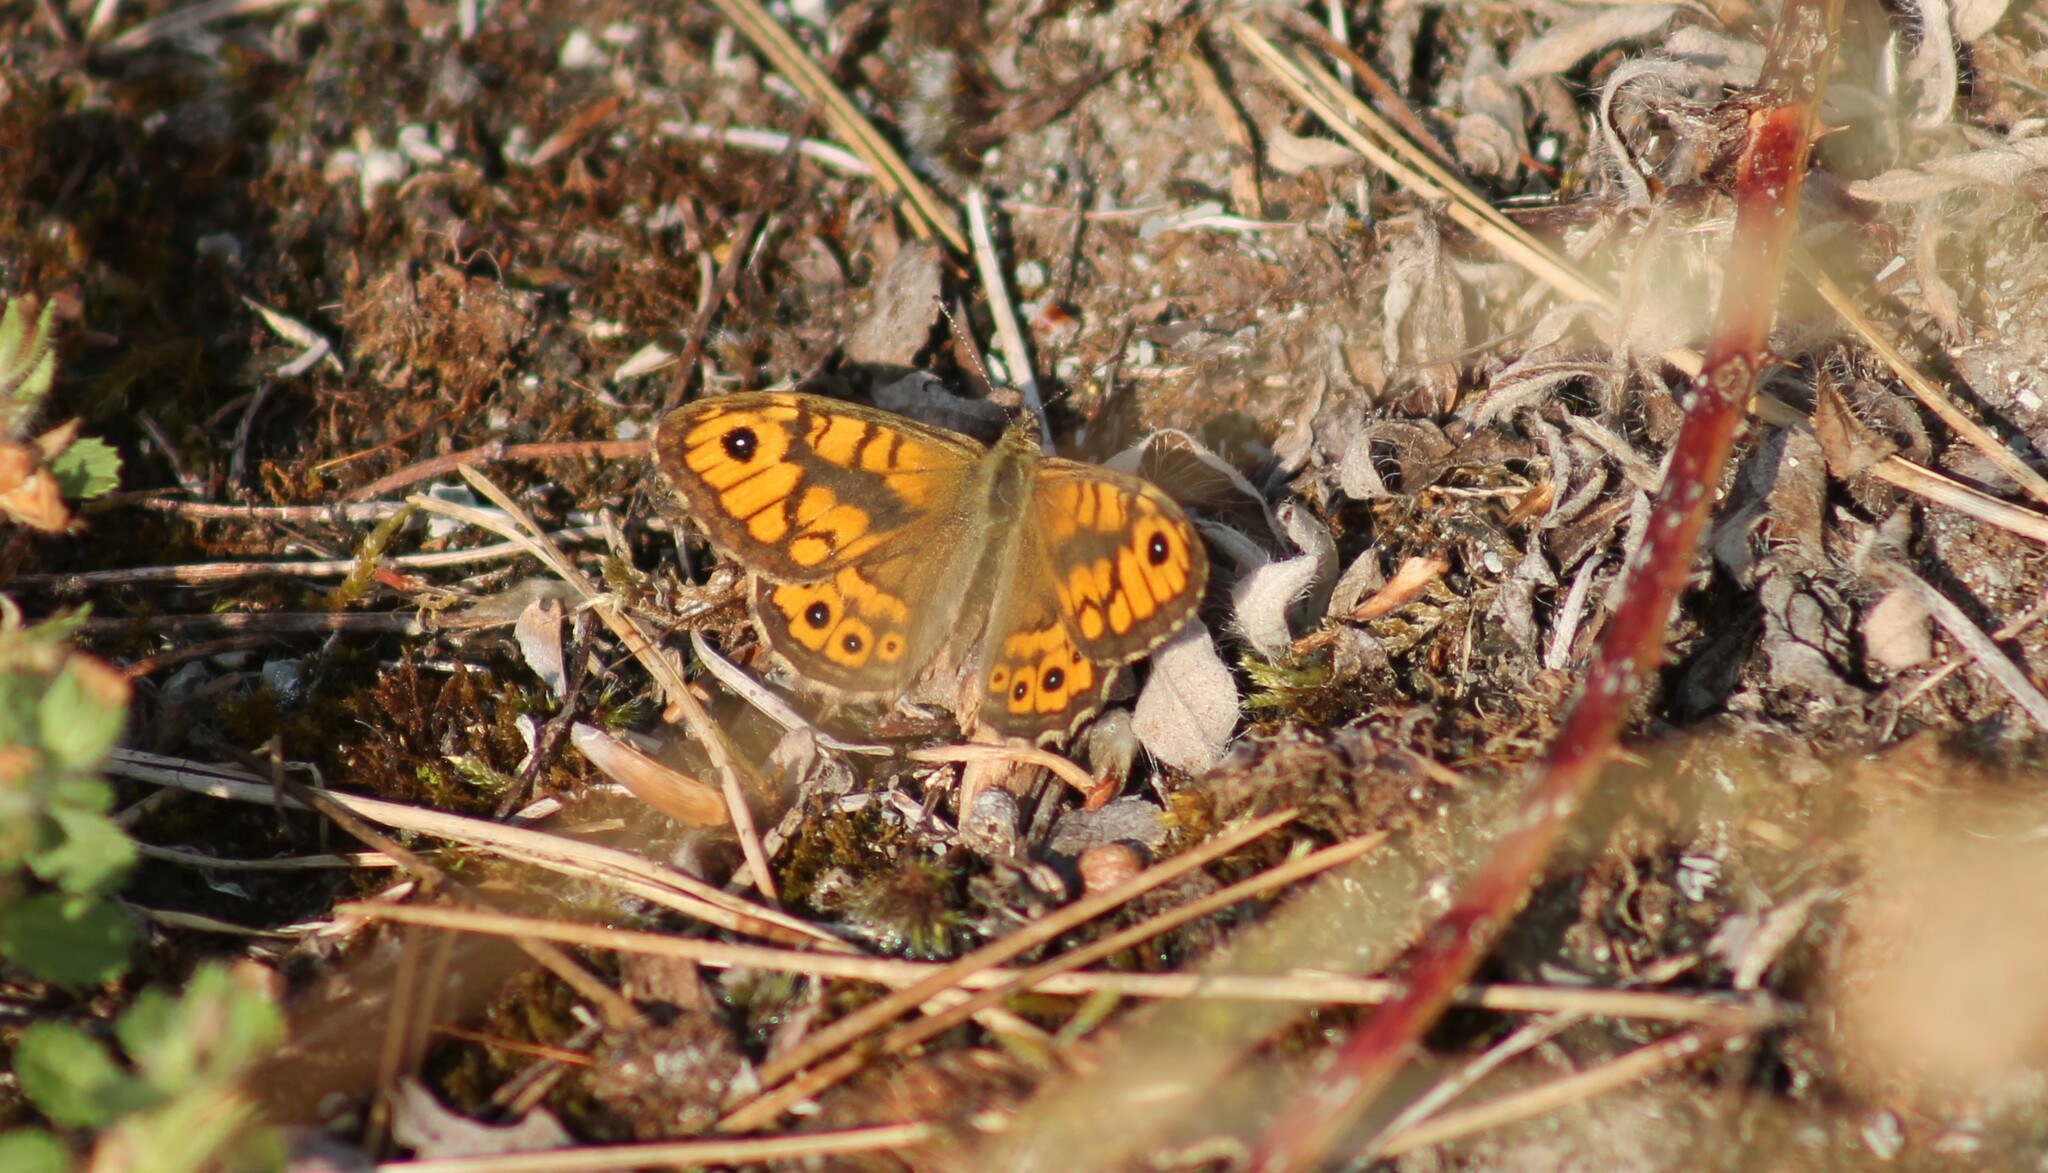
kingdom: Animalia
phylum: Arthropoda
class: Insecta
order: Lepidoptera
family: Nymphalidae
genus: Pararge
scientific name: Pararge Lasiommata megera
